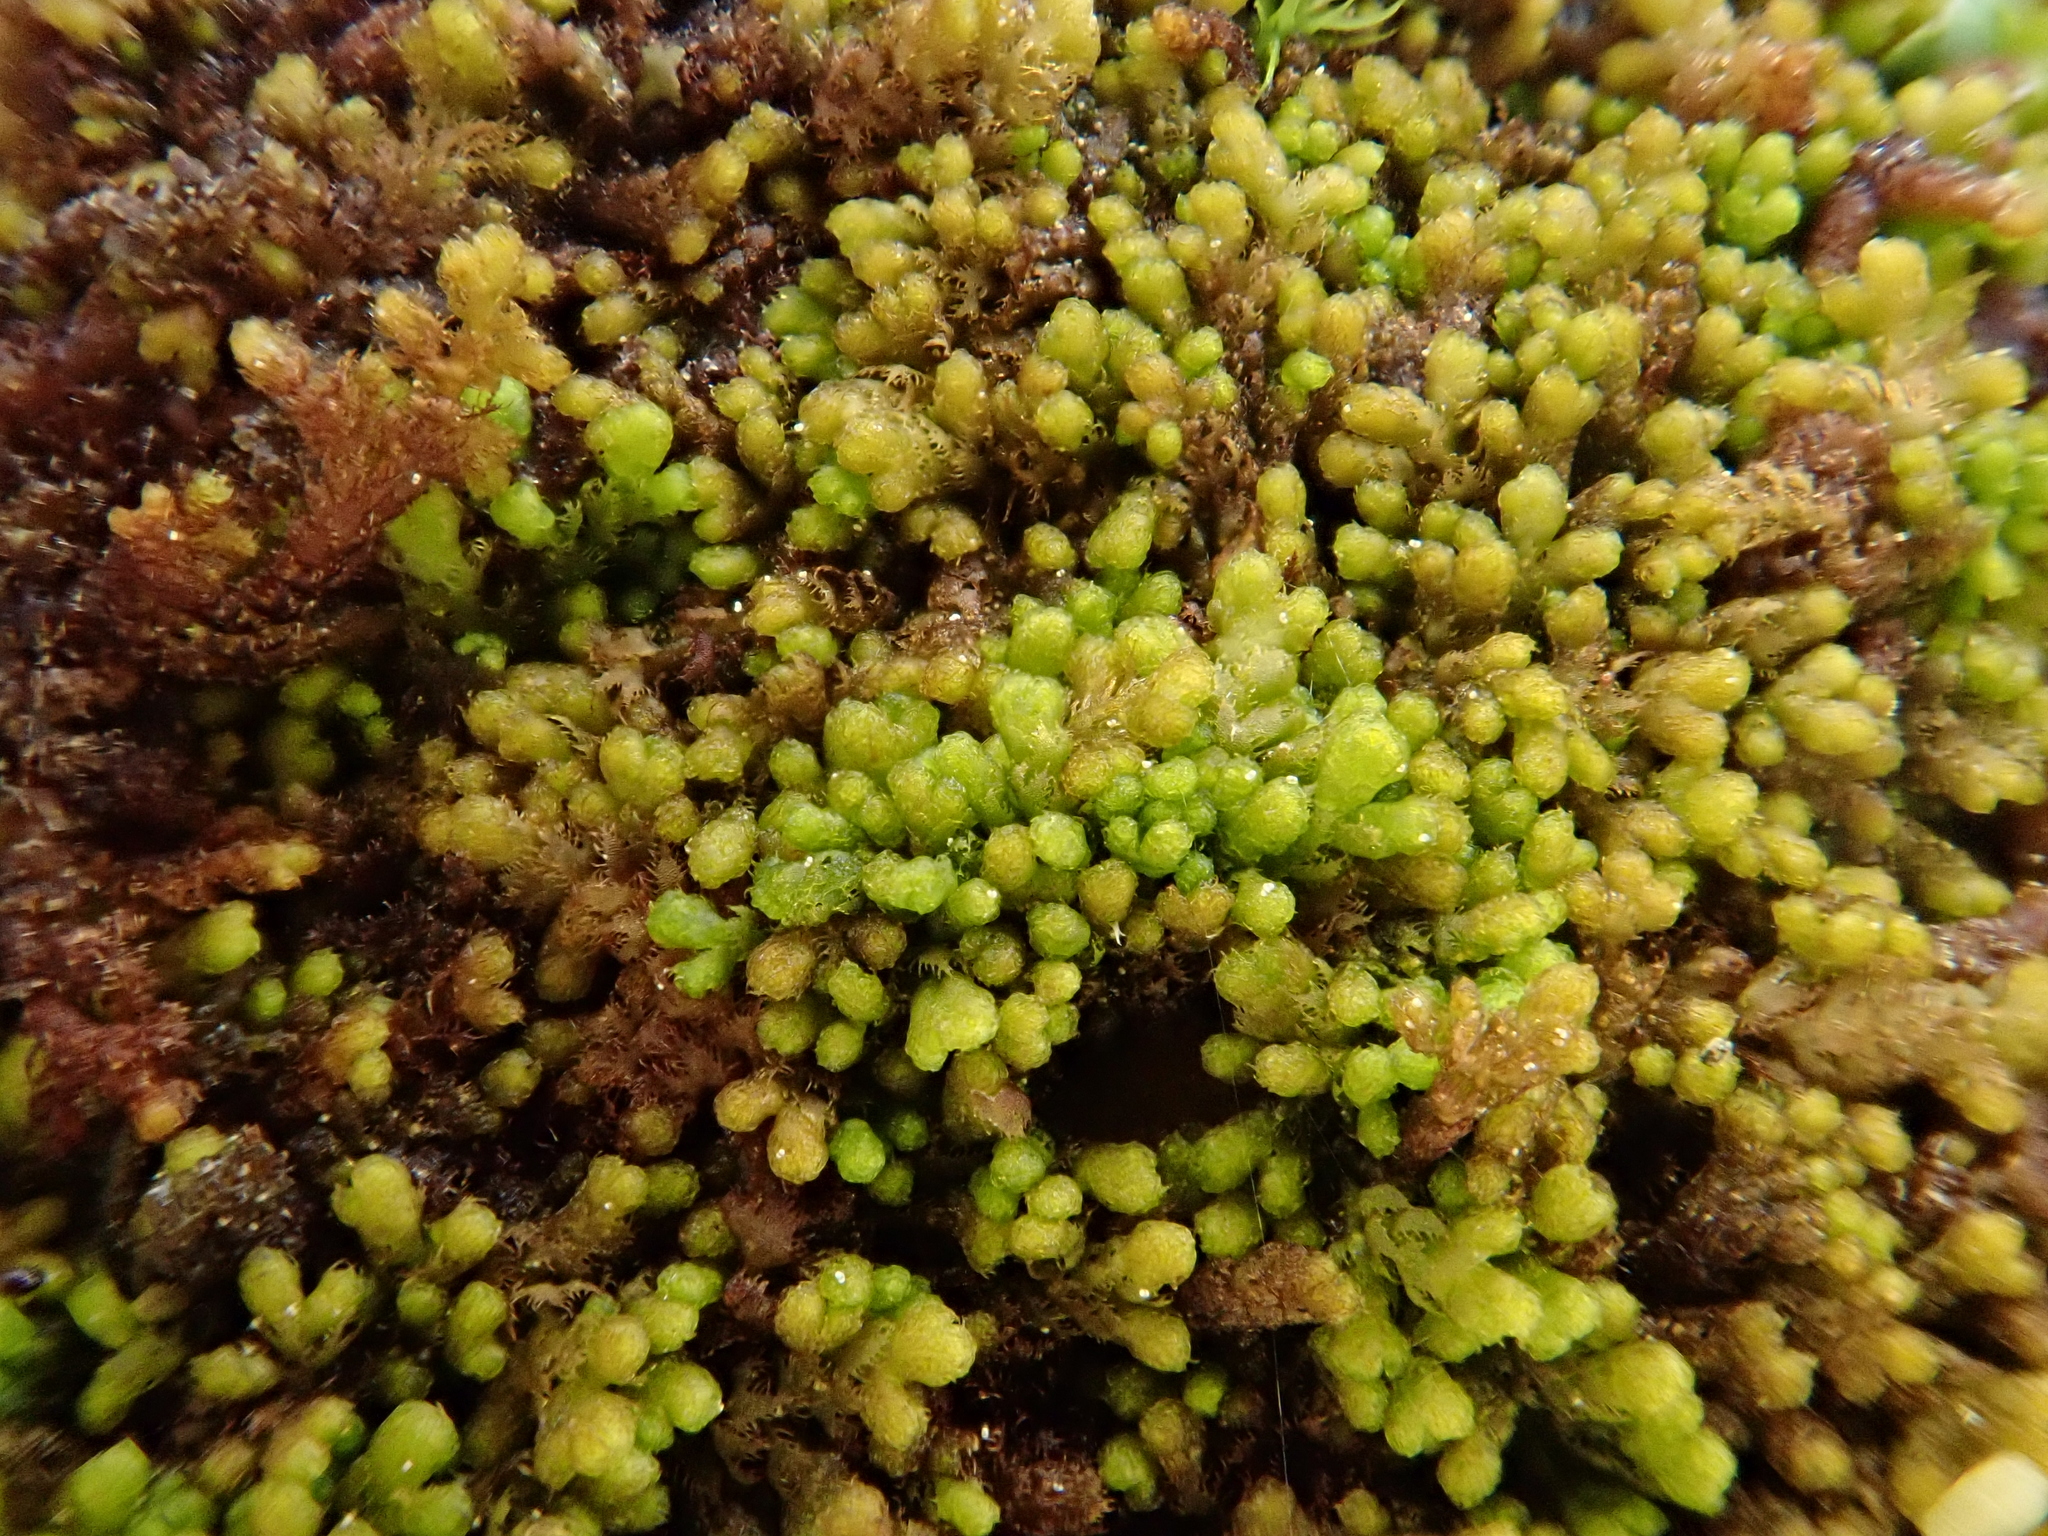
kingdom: Plantae
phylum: Marchantiophyta
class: Jungermanniopsida
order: Ptilidiales
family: Ptilidiaceae
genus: Ptilidium
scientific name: Ptilidium pulcherrimum
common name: Tree fringewort
